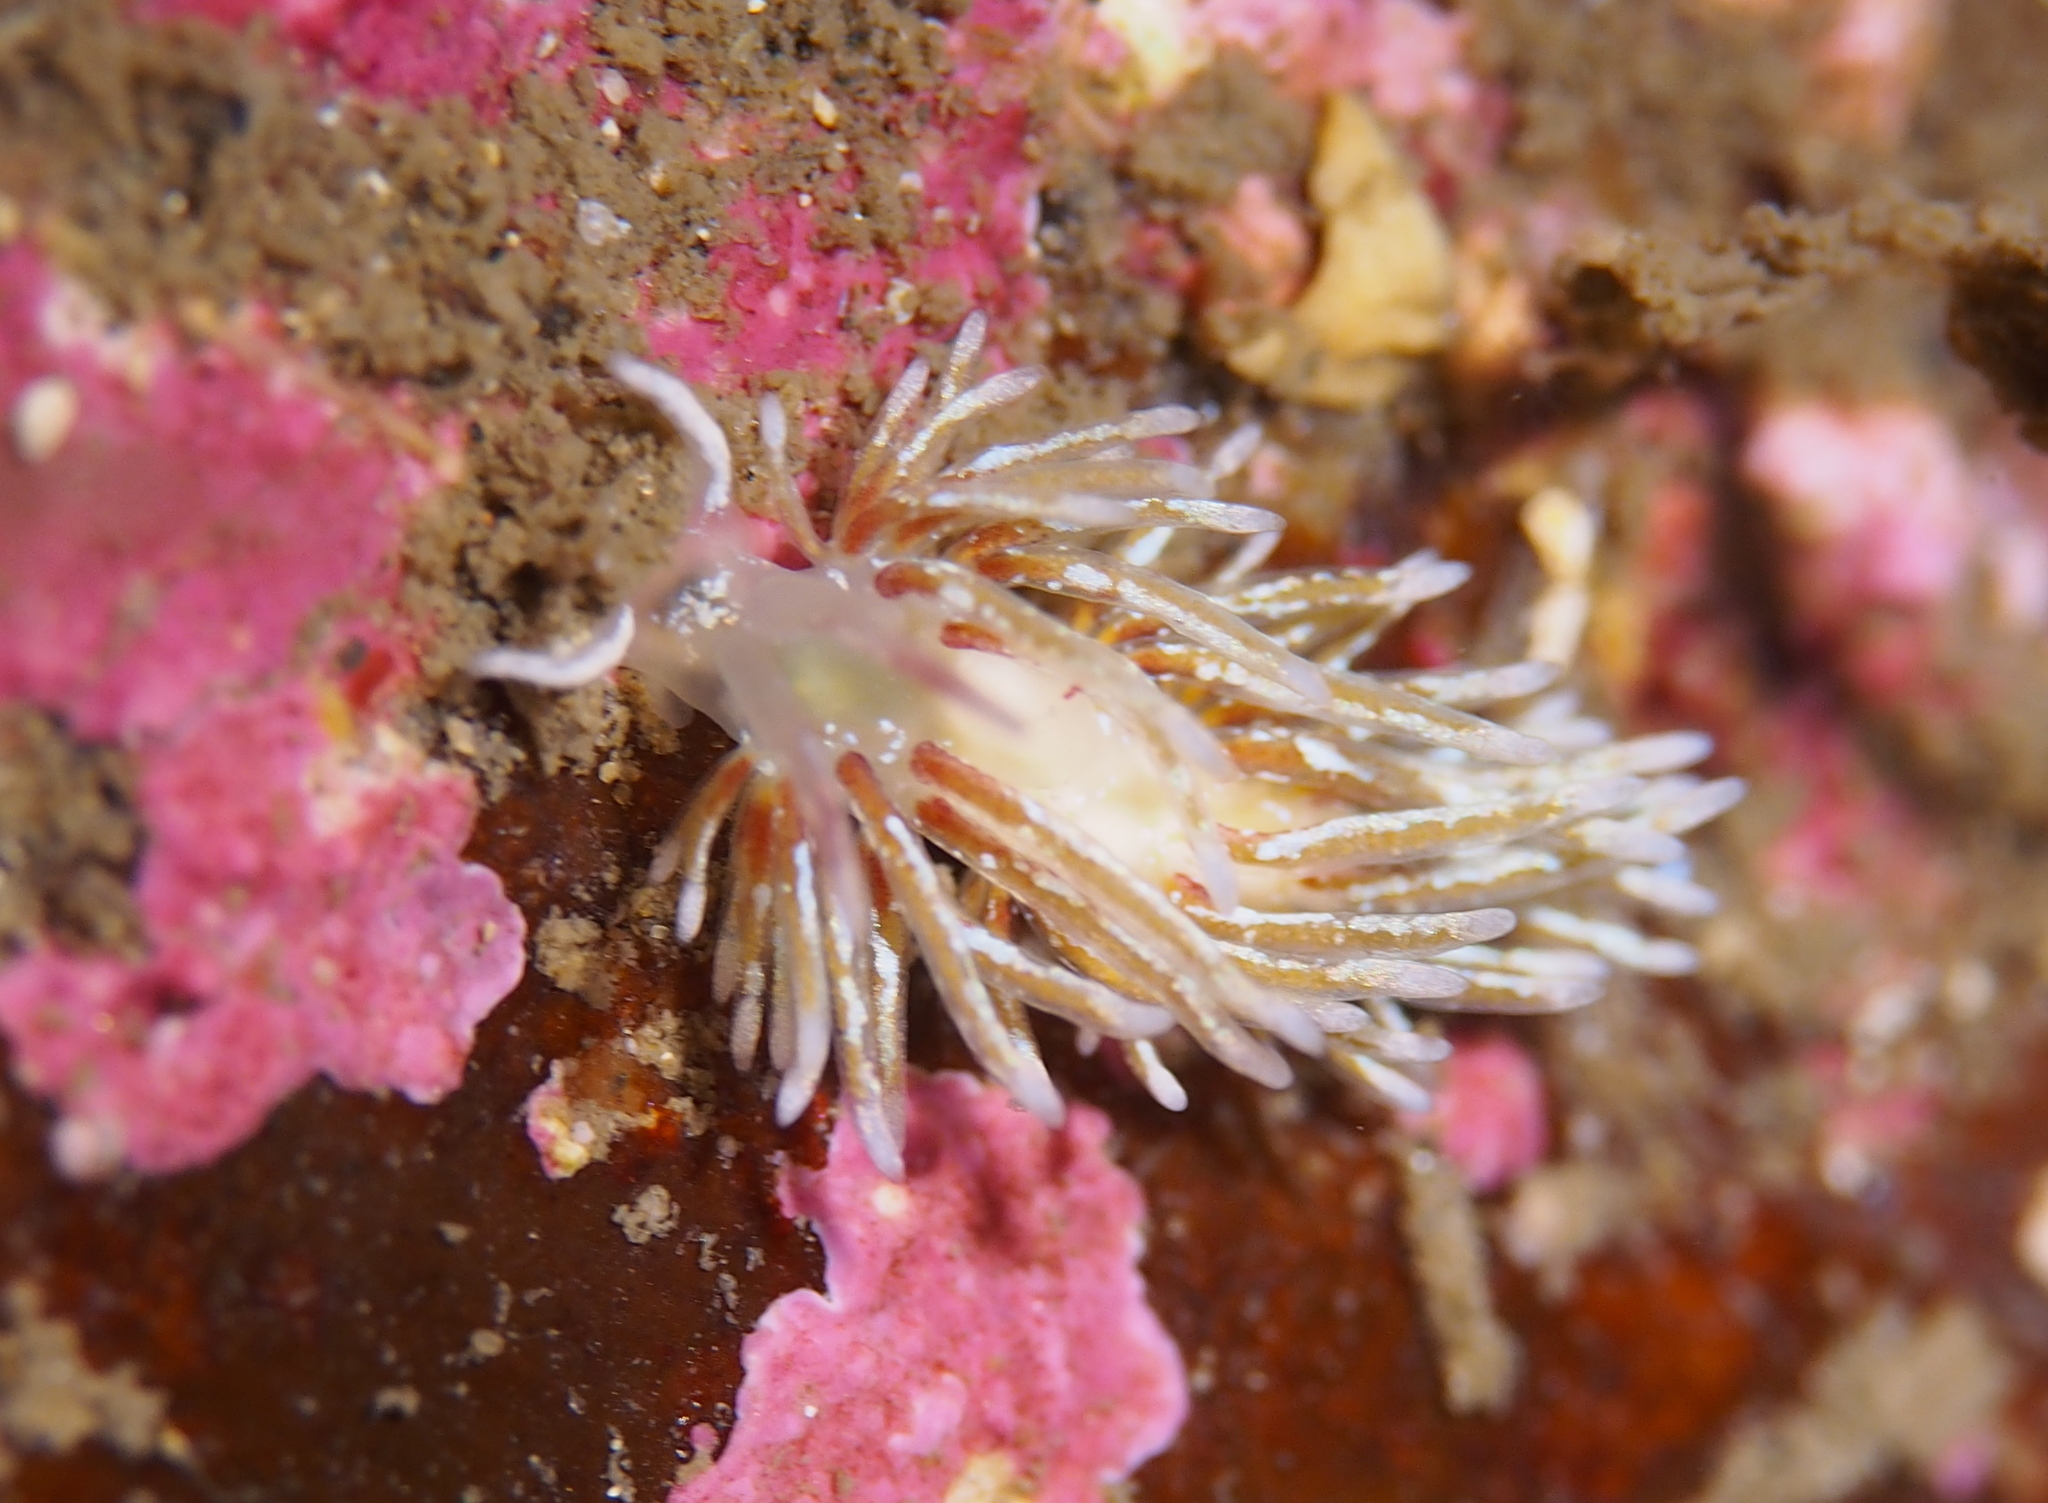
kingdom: Animalia
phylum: Mollusca
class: Gastropoda
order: Nudibranchia
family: Trinchesiidae
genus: Rubramoena
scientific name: Rubramoena rubescens
